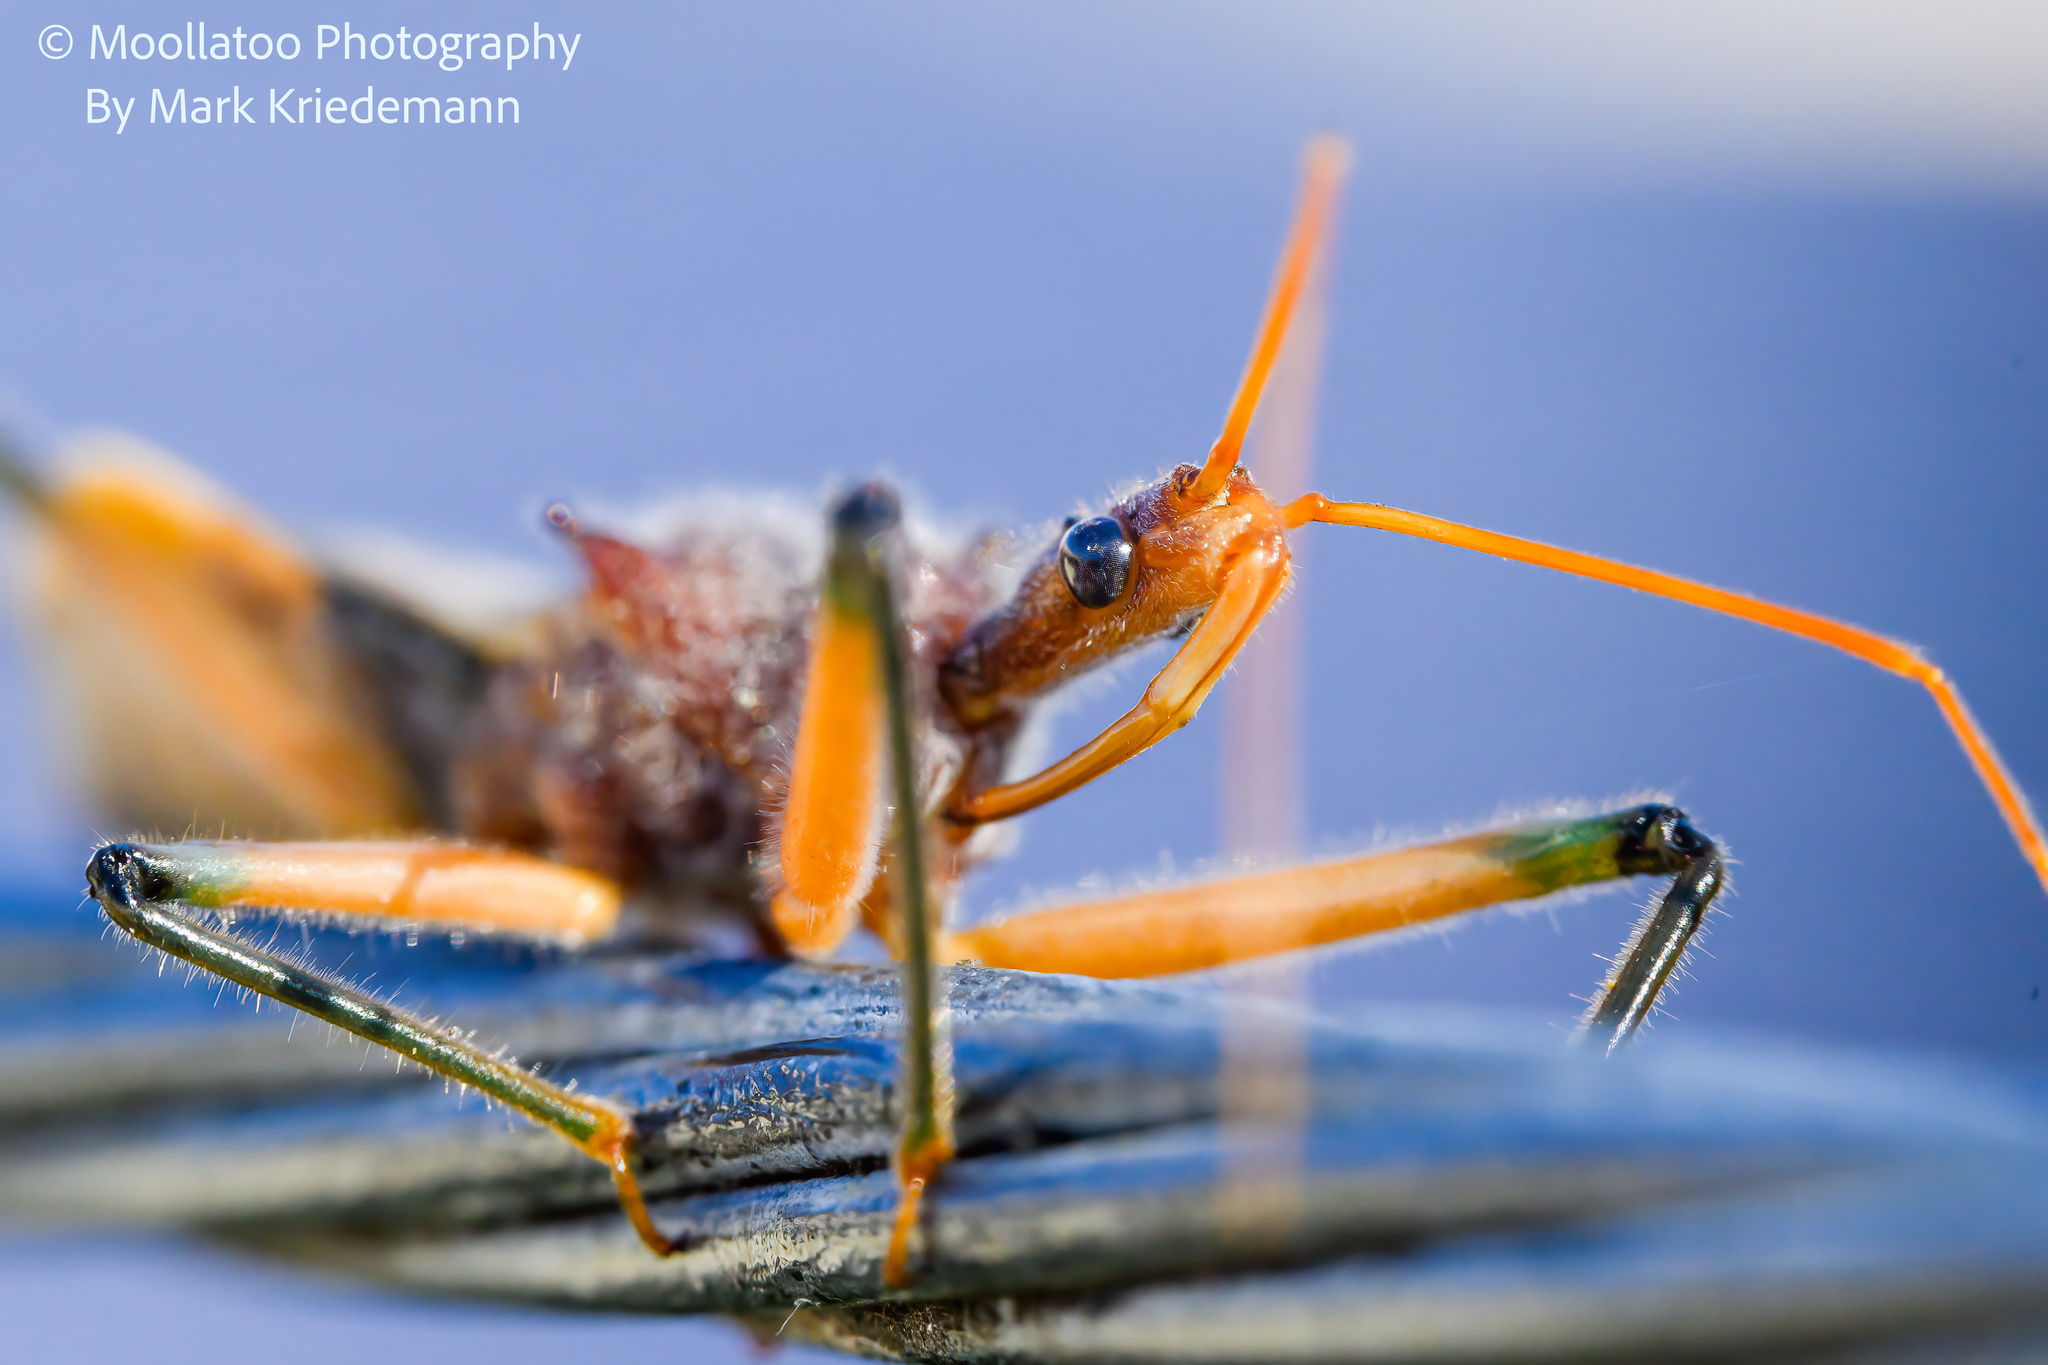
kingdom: Animalia
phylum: Arthropoda
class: Insecta
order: Hemiptera
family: Reduviidae
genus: Pristhesancus
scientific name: Pristhesancus plagipennis
